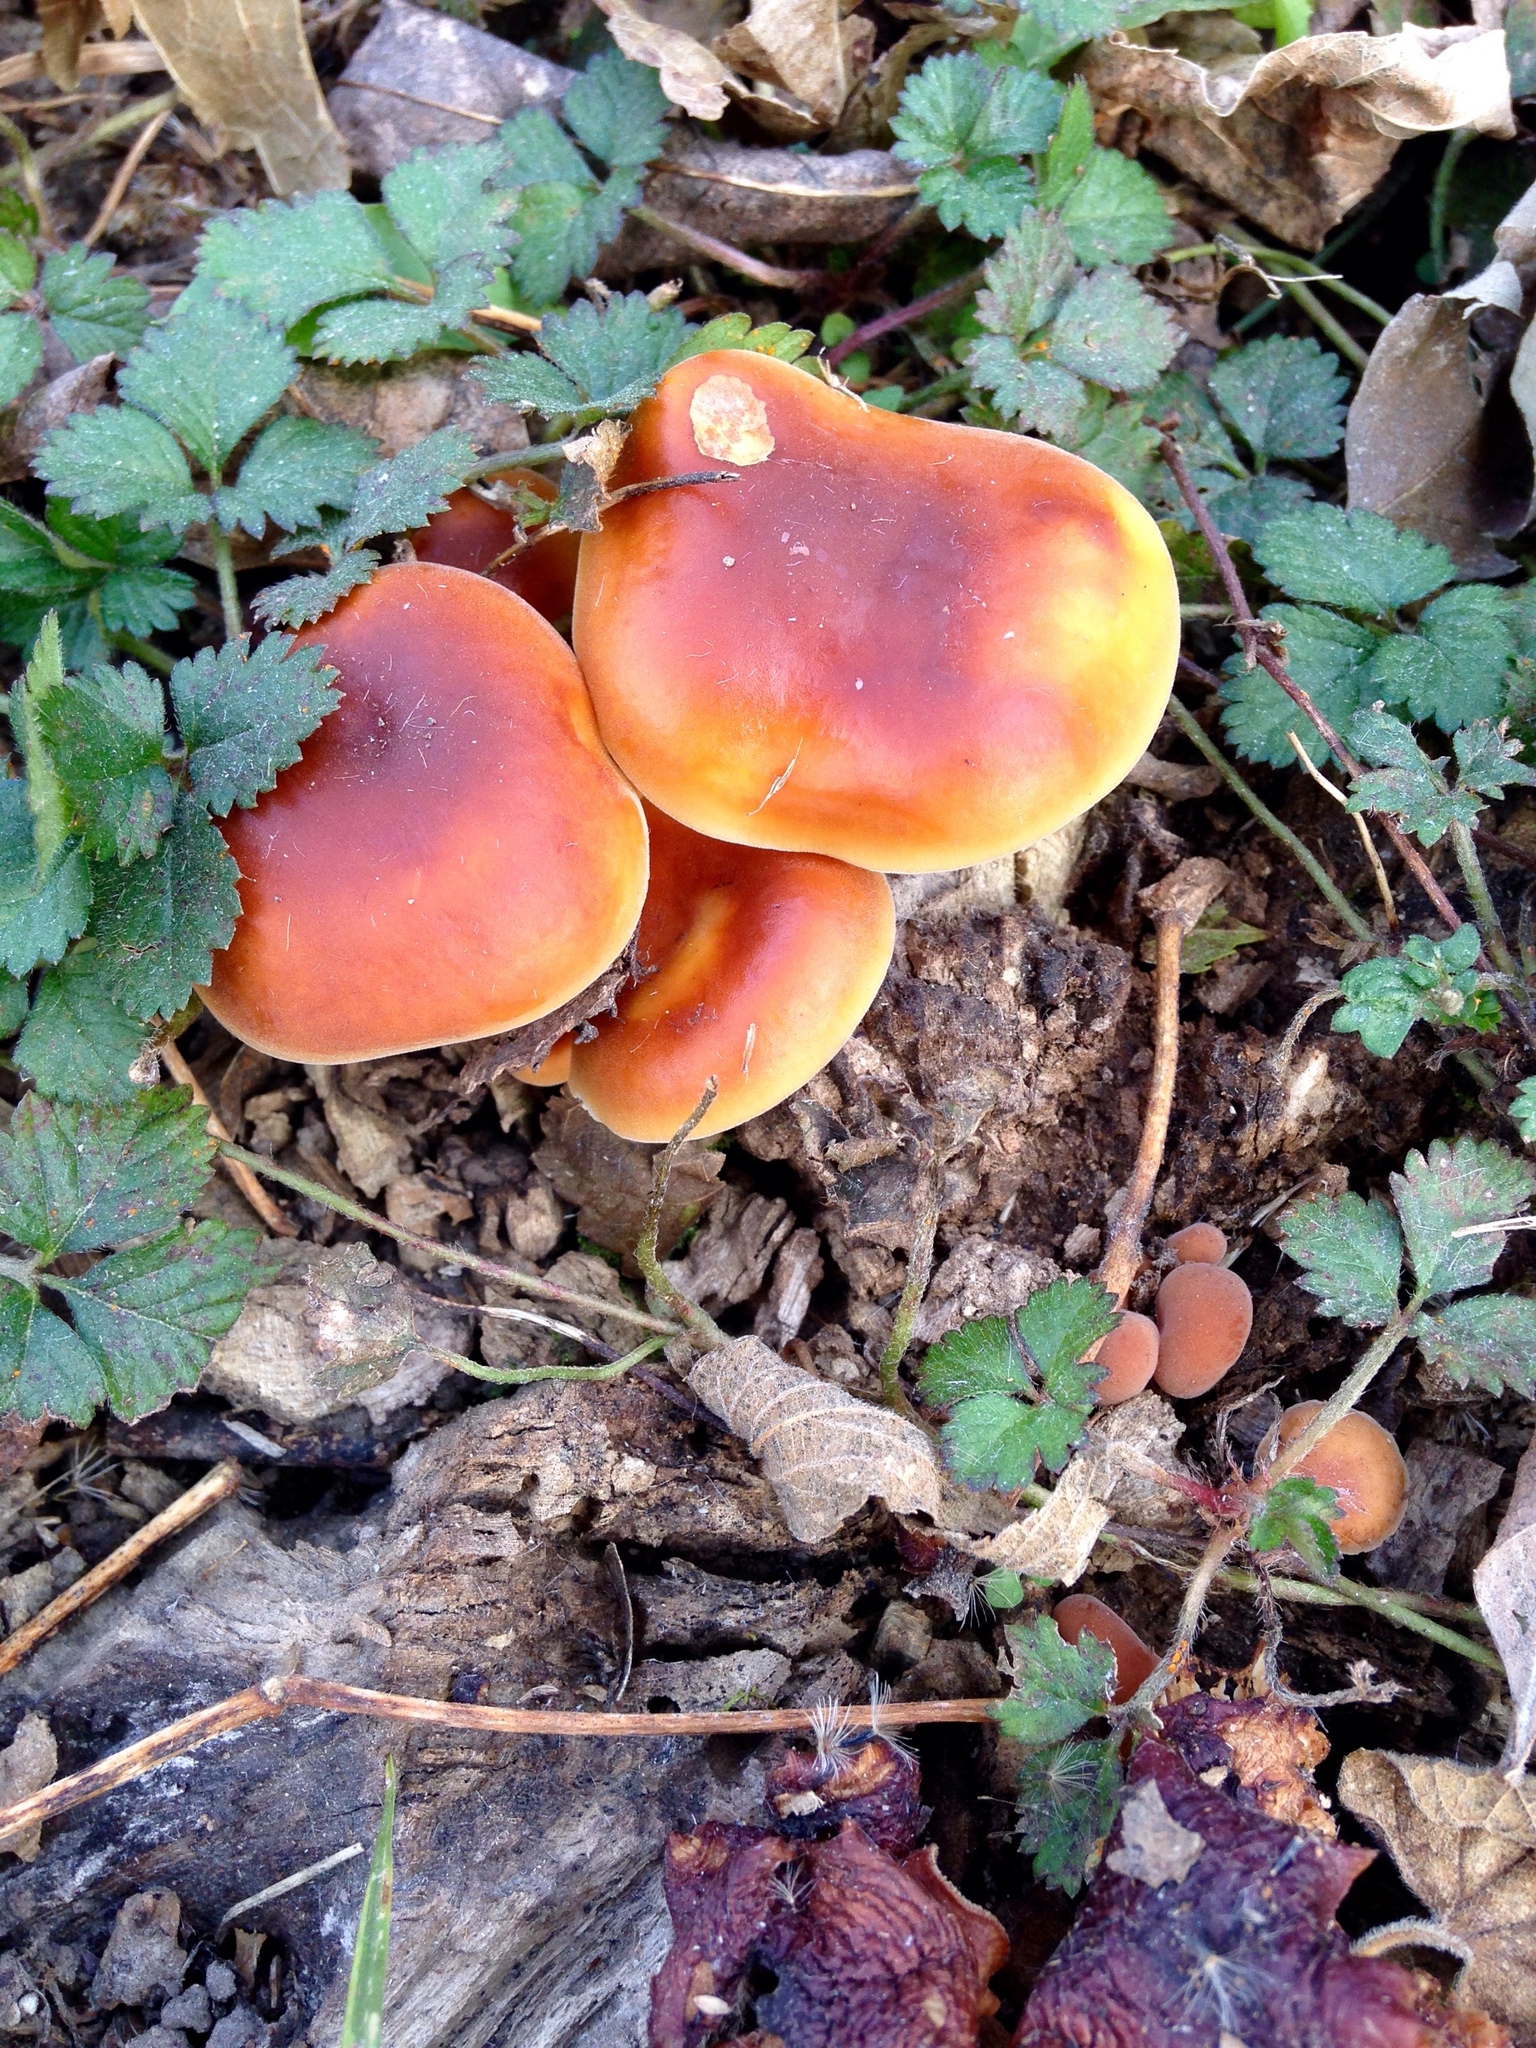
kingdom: Fungi
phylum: Basidiomycota
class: Agaricomycetes
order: Agaricales
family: Physalacriaceae
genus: Flammulina
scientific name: Flammulina velutipes
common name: Velvet shank
